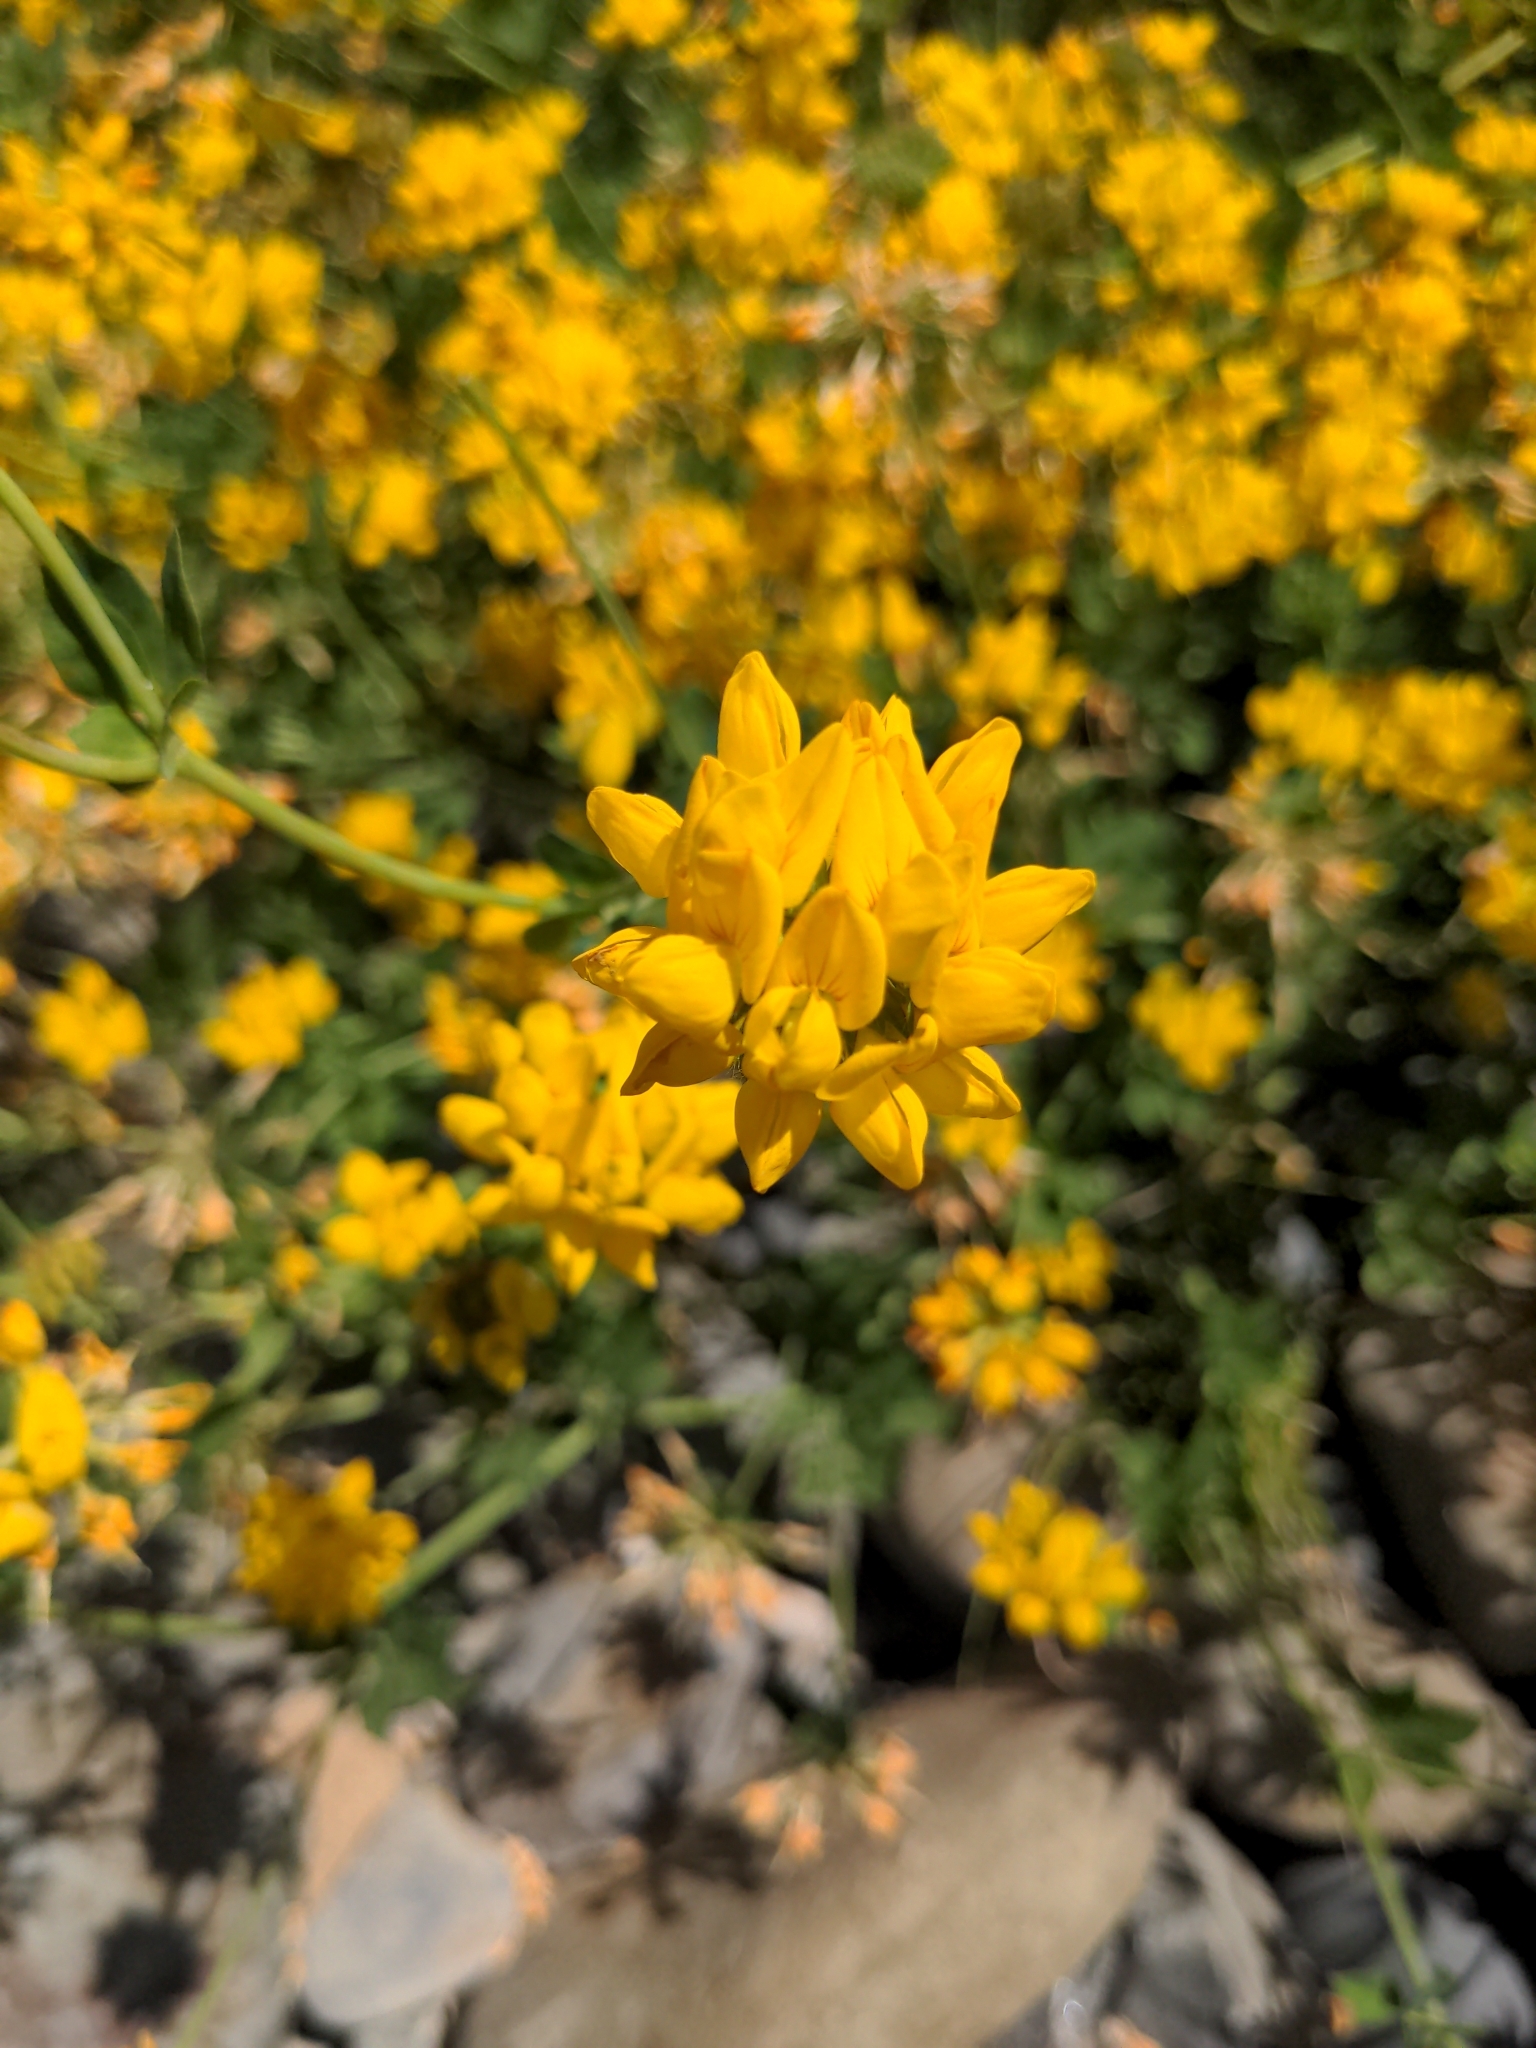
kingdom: Plantae
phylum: Tracheophyta
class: Magnoliopsida
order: Fabales
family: Fabaceae
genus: Lotus
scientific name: Lotus pedunculatus
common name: Greater birdsfoot-trefoil
